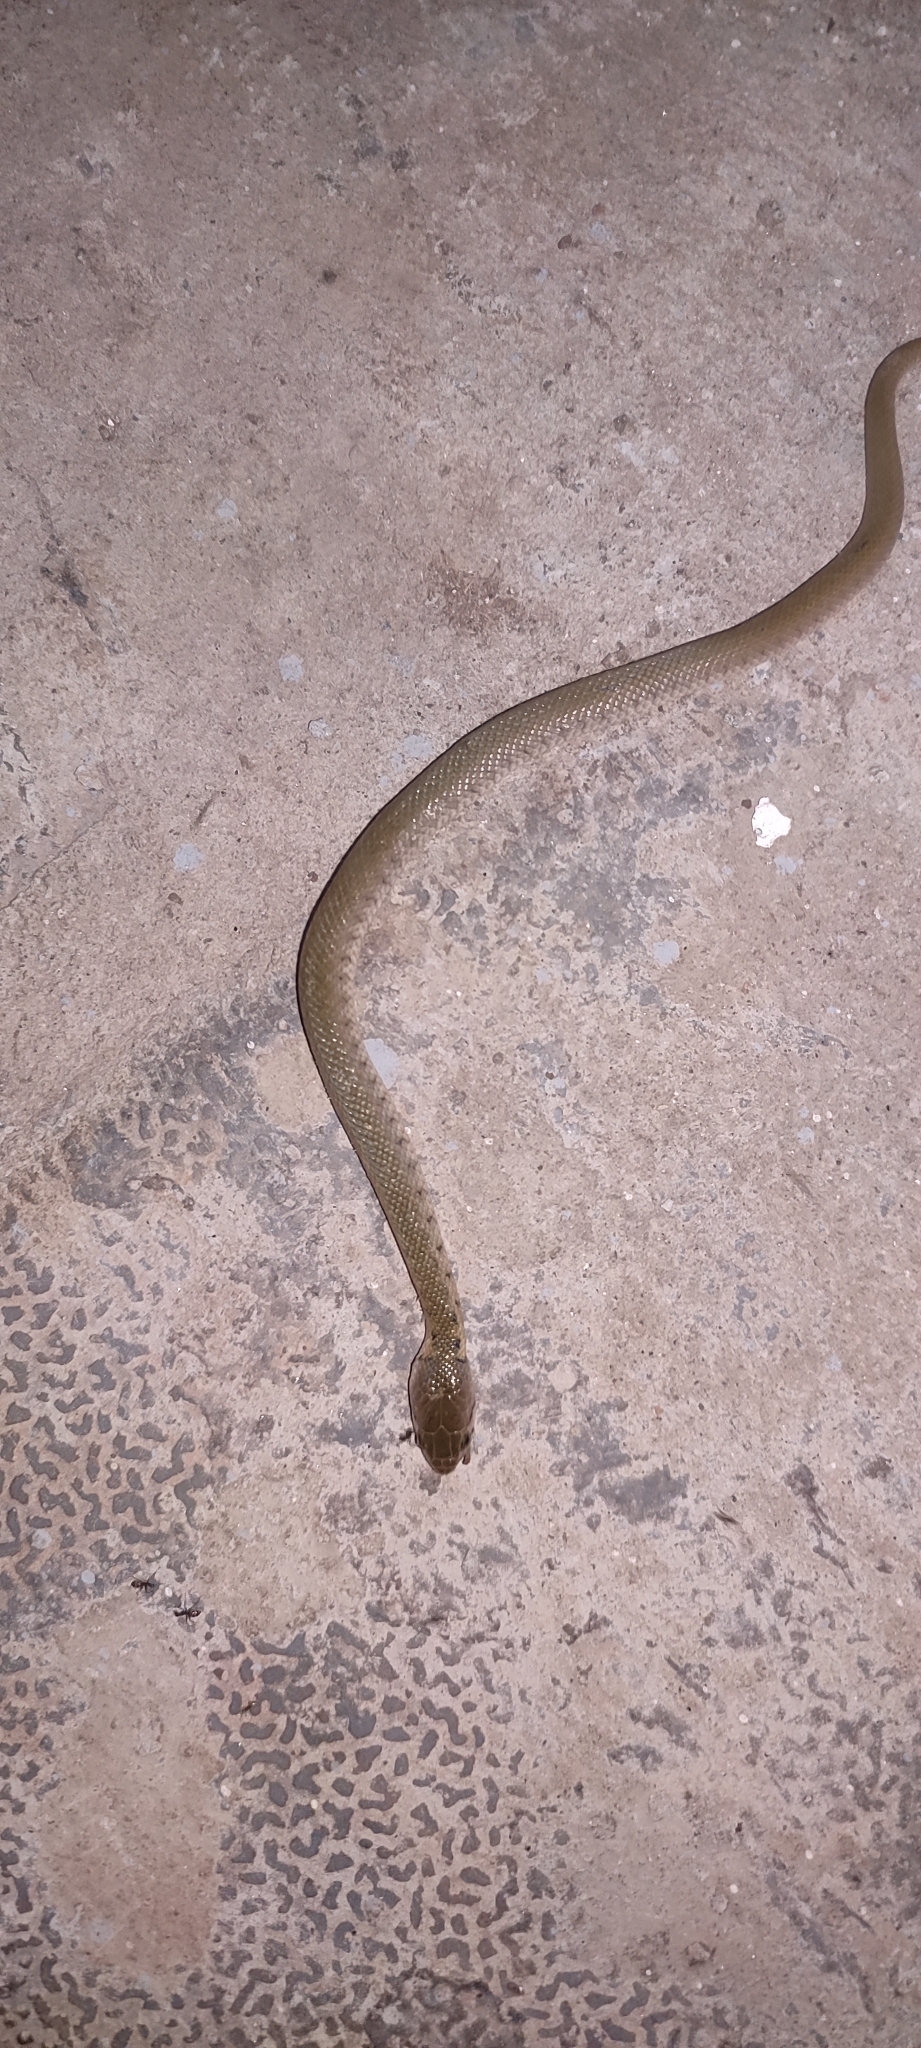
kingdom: Animalia
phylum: Chordata
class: Squamata
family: Colubridae
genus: Fowlea
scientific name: Fowlea piscator
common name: Asiatic water snake
